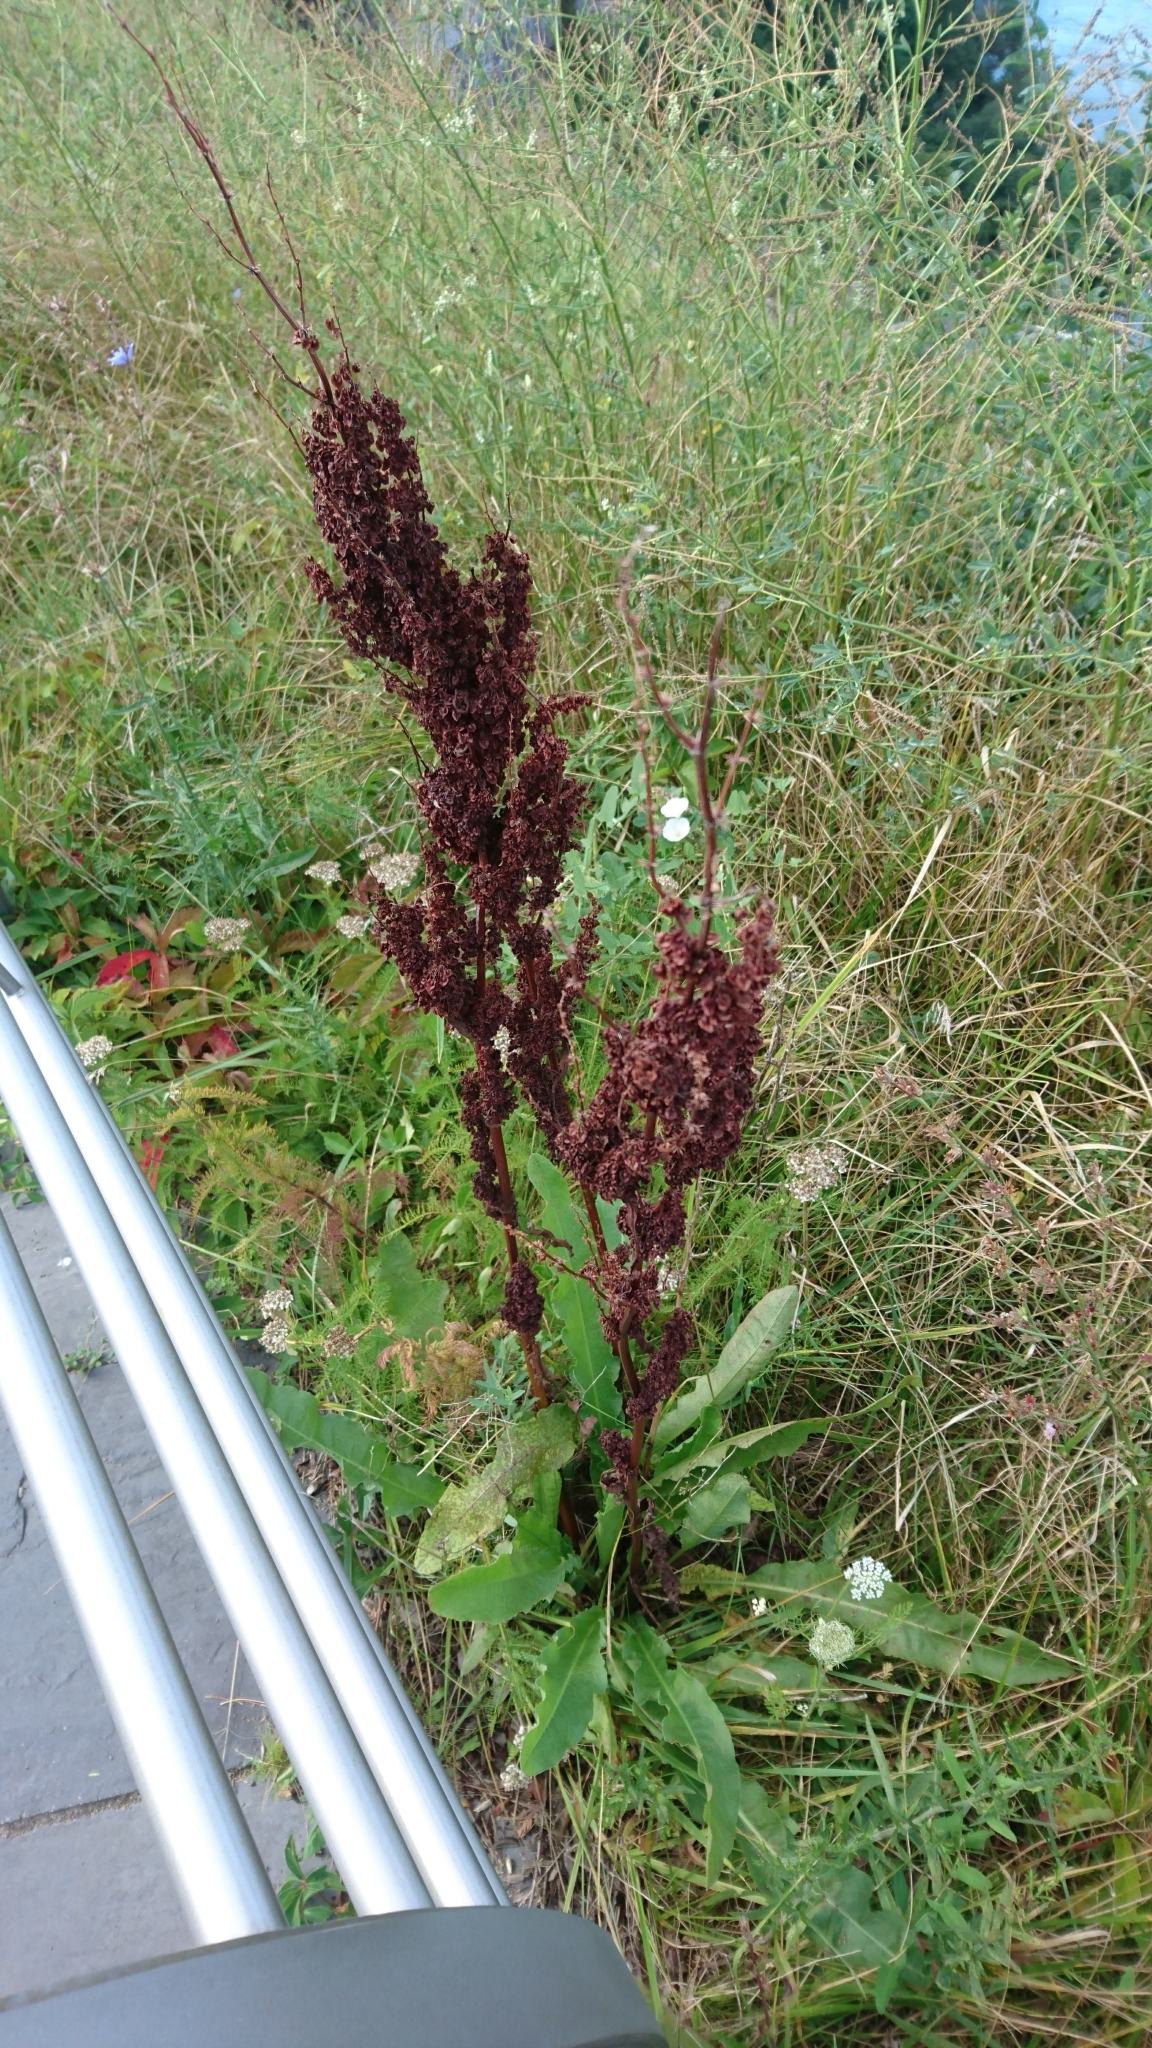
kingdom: Plantae
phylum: Tracheophyta
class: Magnoliopsida
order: Caryophyllales
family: Polygonaceae
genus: Rumex
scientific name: Rumex crispus
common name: Curled dock
